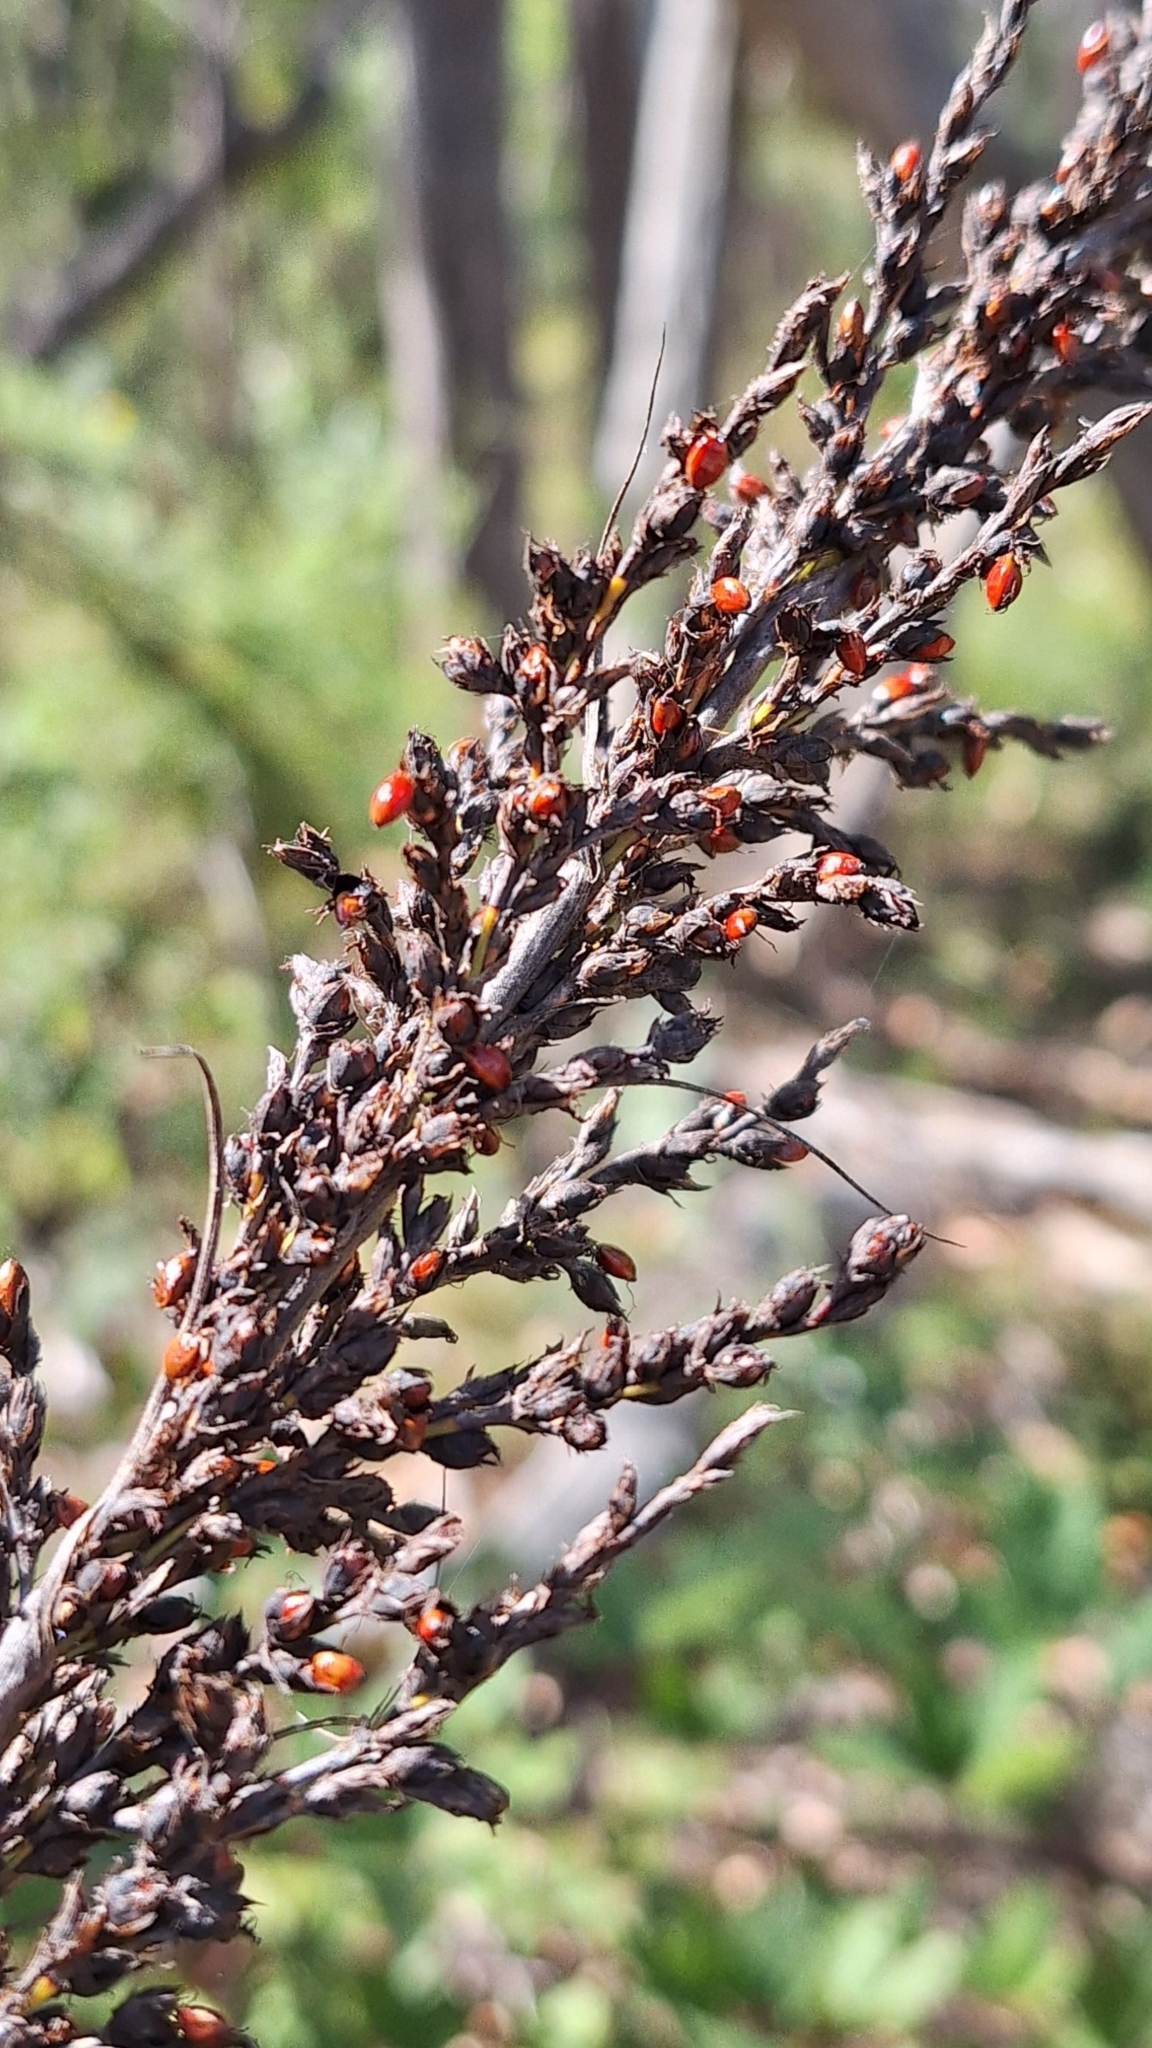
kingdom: Plantae
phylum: Tracheophyta
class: Liliopsida
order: Poales
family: Cyperaceae
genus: Gahnia
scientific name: Gahnia sieberiana
